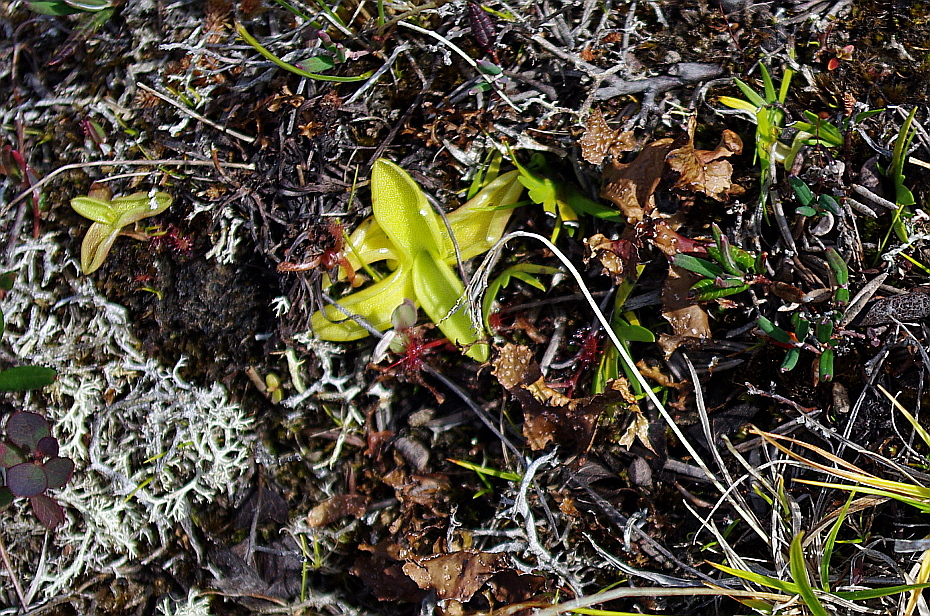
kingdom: Plantae
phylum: Tracheophyta
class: Magnoliopsida
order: Lamiales
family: Lentibulariaceae
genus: Pinguicula
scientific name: Pinguicula vulgaris
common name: Common butterwort
